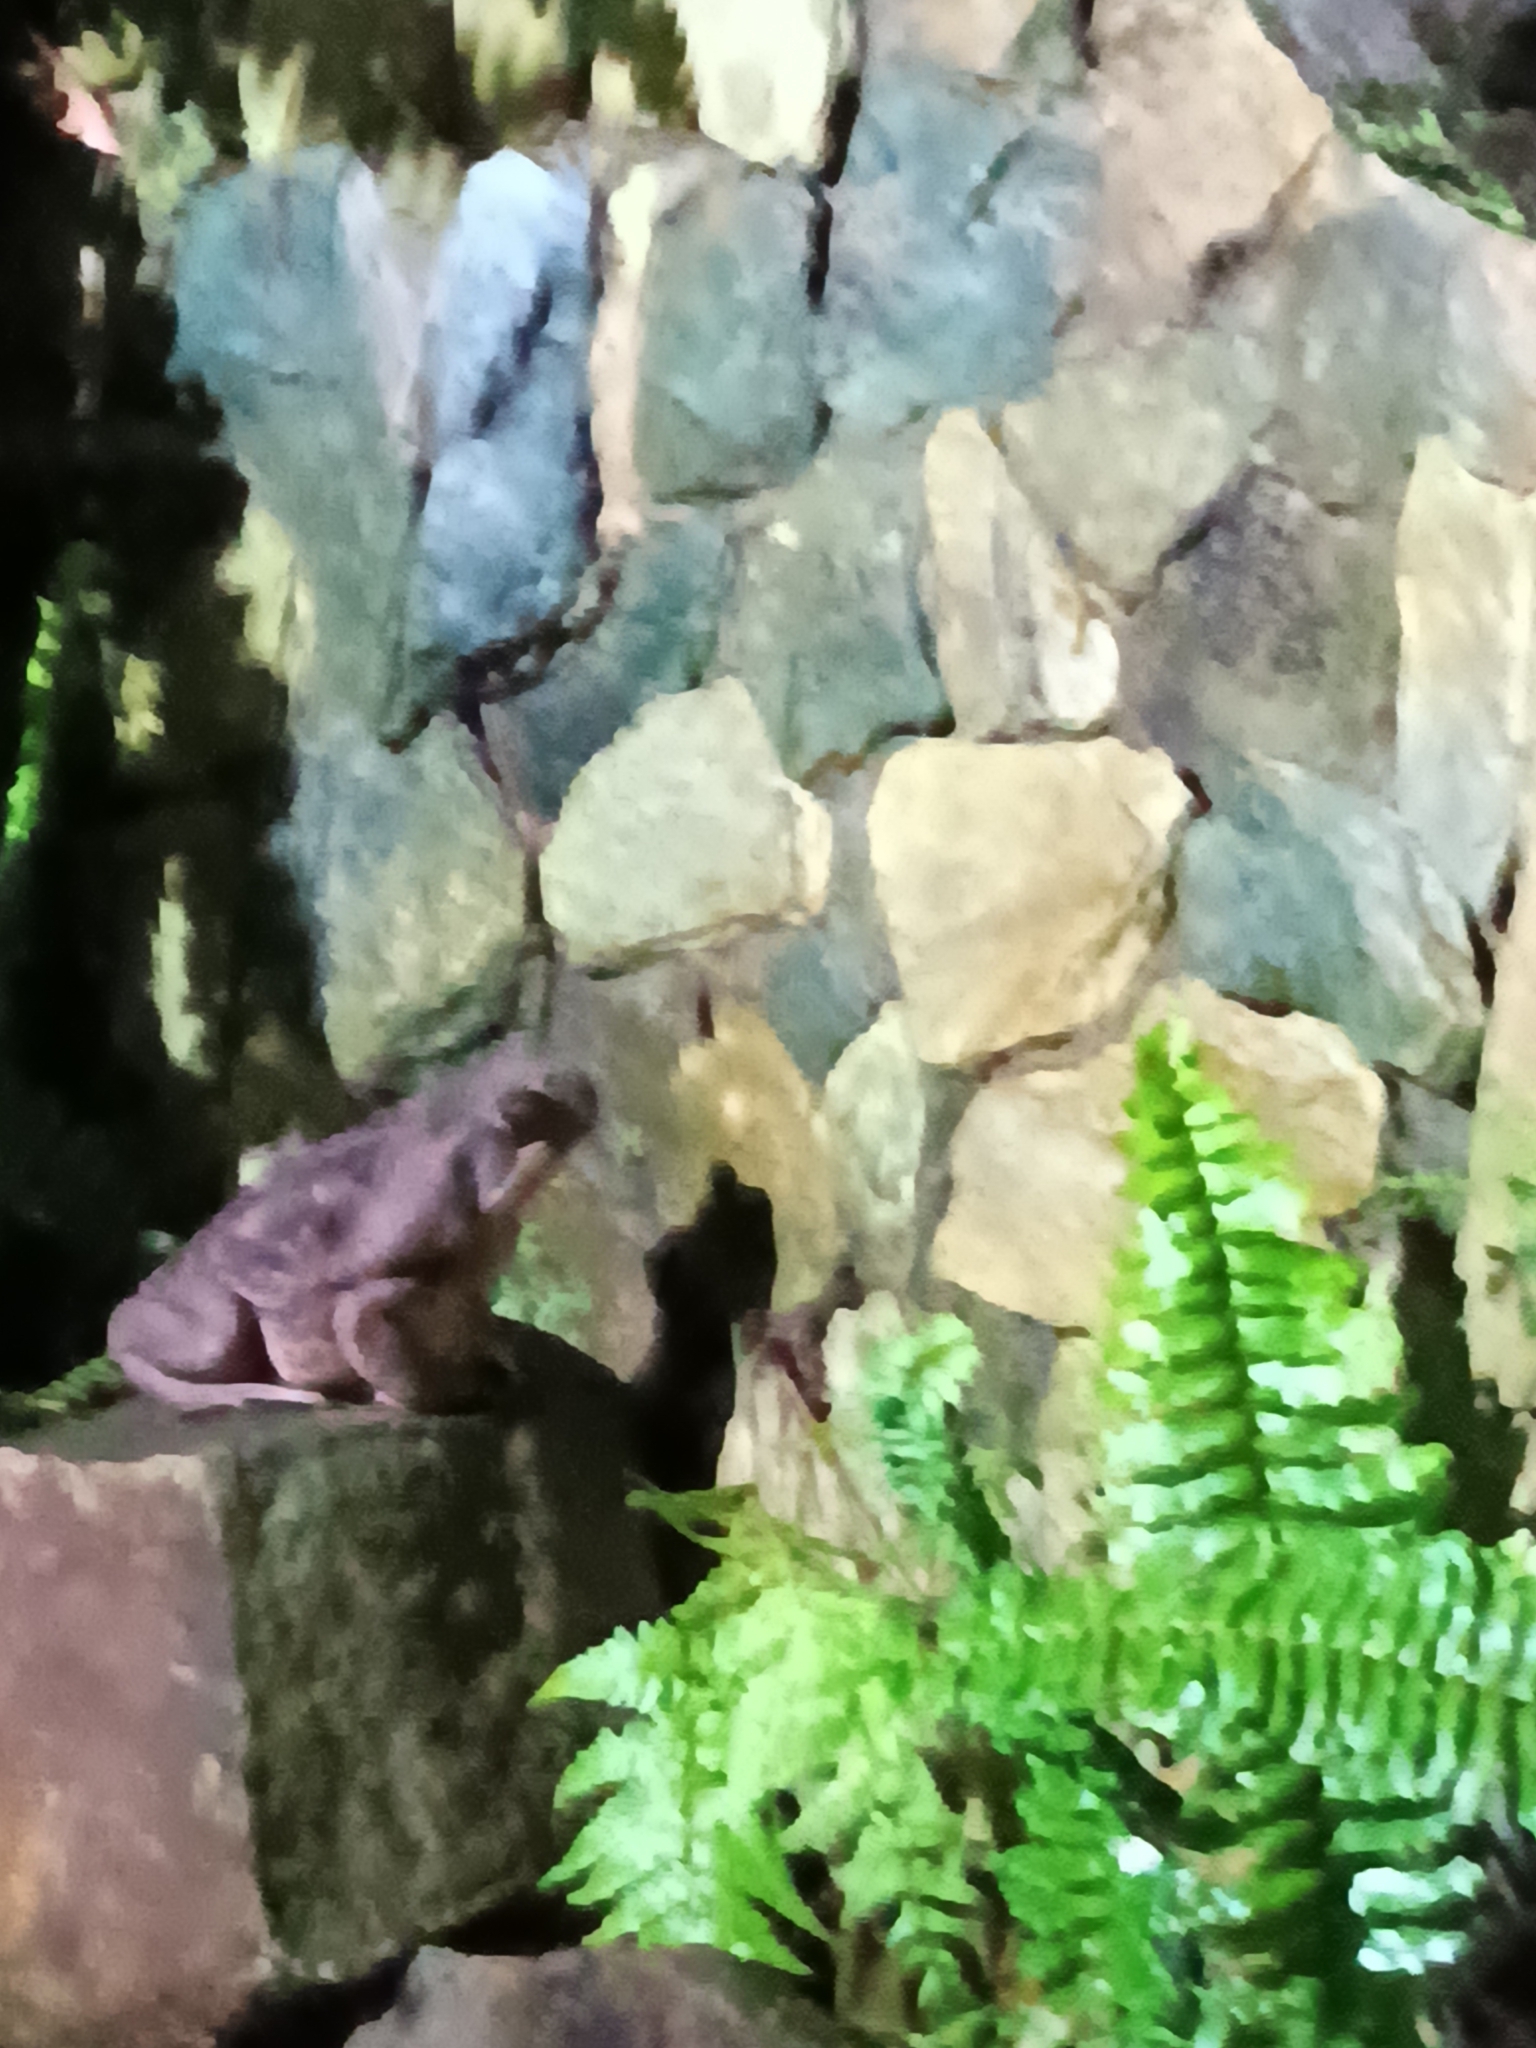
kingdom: Animalia
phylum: Chordata
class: Amphibia
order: Anura
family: Bufonidae
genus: Rhinella
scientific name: Rhinella horribilis
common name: Mesoamerican cane toad
